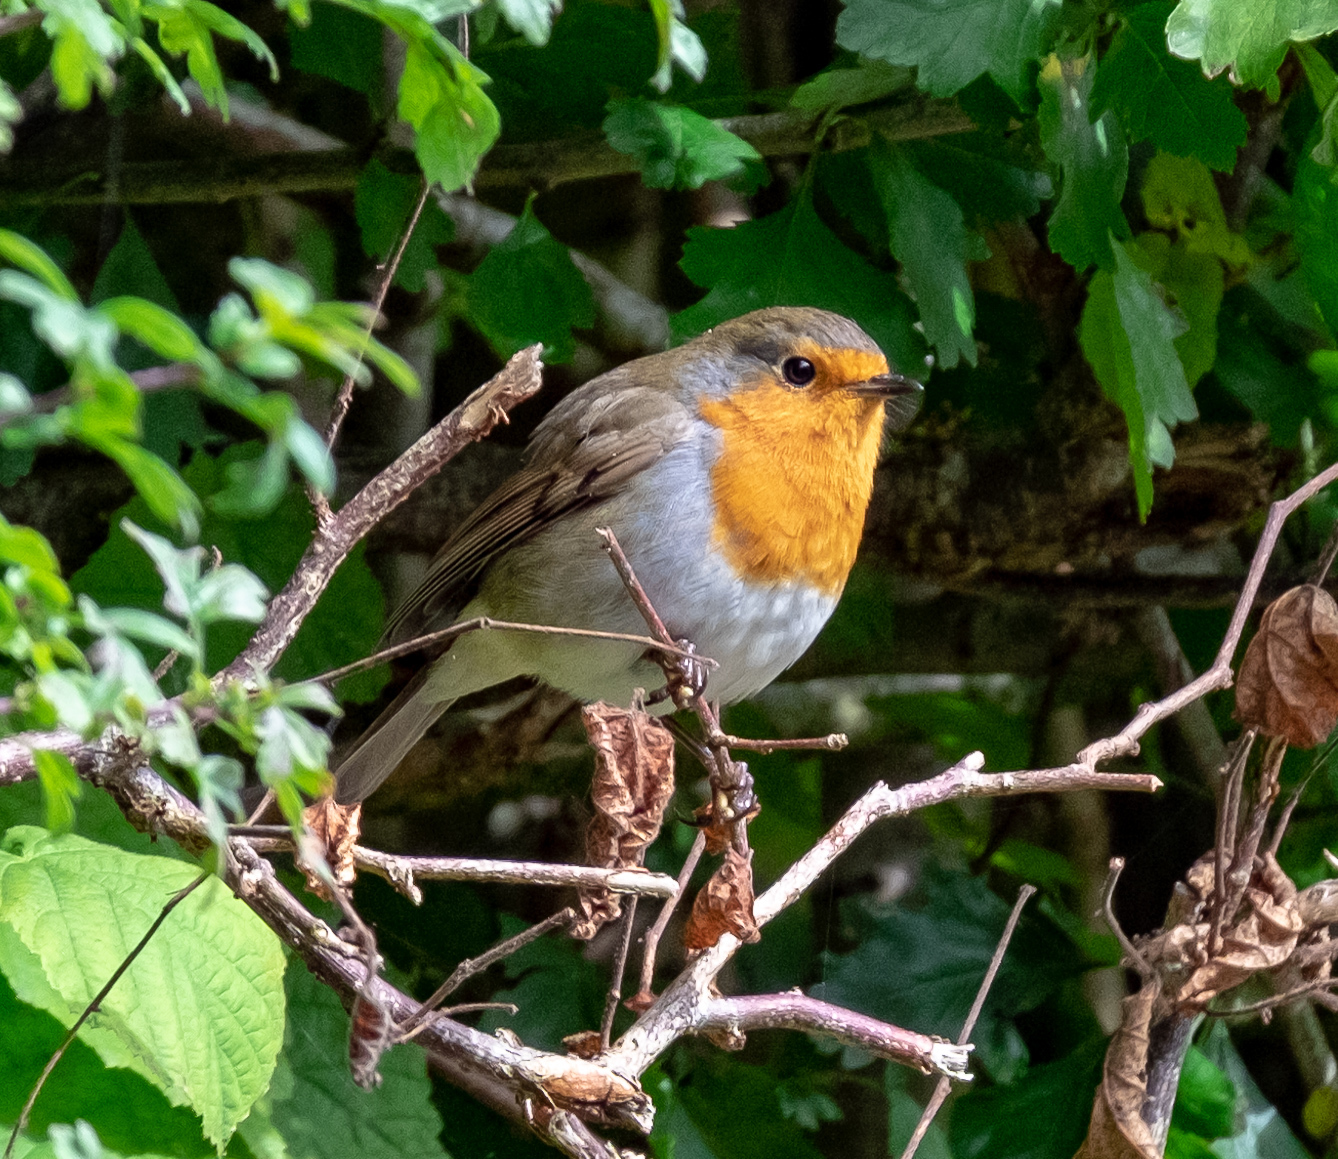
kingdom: Animalia
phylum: Chordata
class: Aves
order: Passeriformes
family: Muscicapidae
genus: Erithacus
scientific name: Erithacus rubecula
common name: European robin
